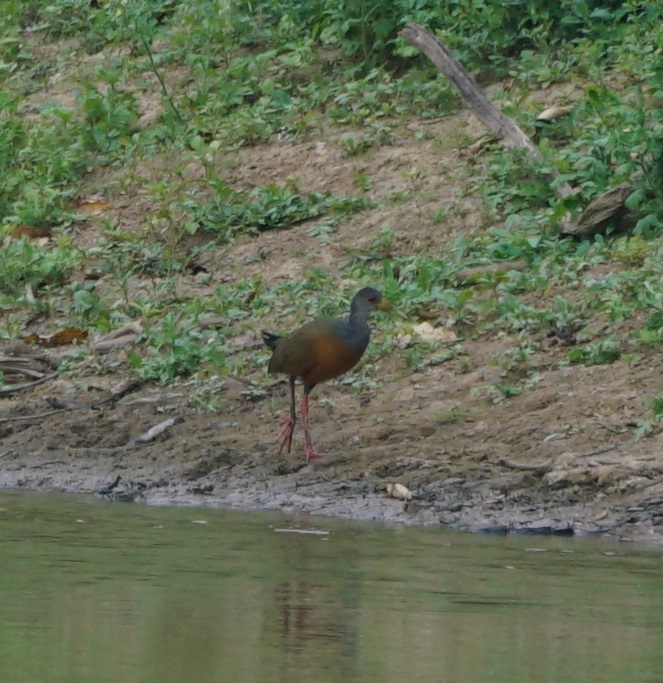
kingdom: Animalia
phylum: Chordata
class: Aves
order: Gruiformes
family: Rallidae
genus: Aramides
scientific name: Aramides cajanea
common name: Gray-necked wood-rail
